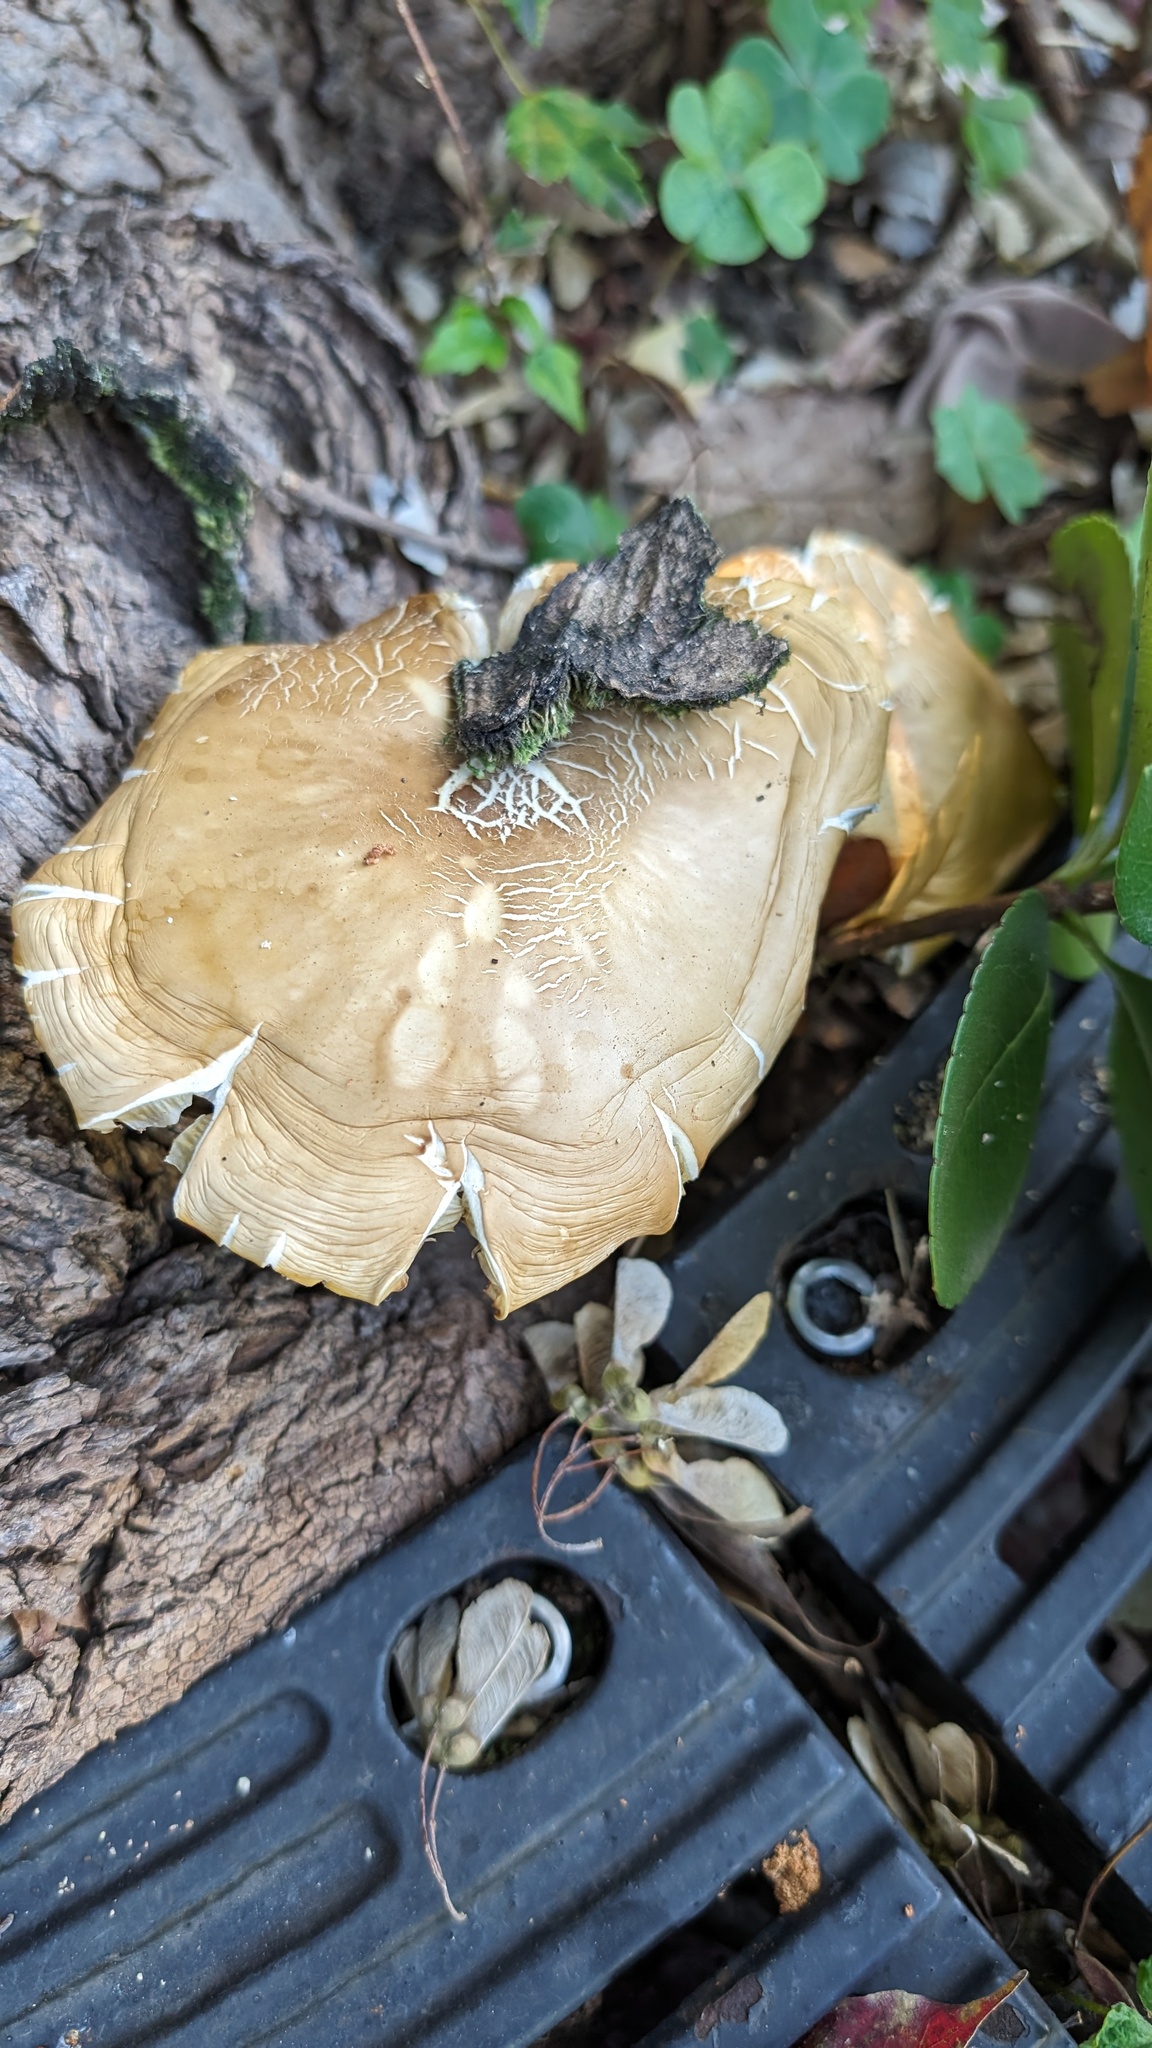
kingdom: Fungi
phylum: Basidiomycota
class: Agaricomycetes
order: Agaricales
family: Tubariaceae
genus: Cyclocybe
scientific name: Cyclocybe cylindracea
